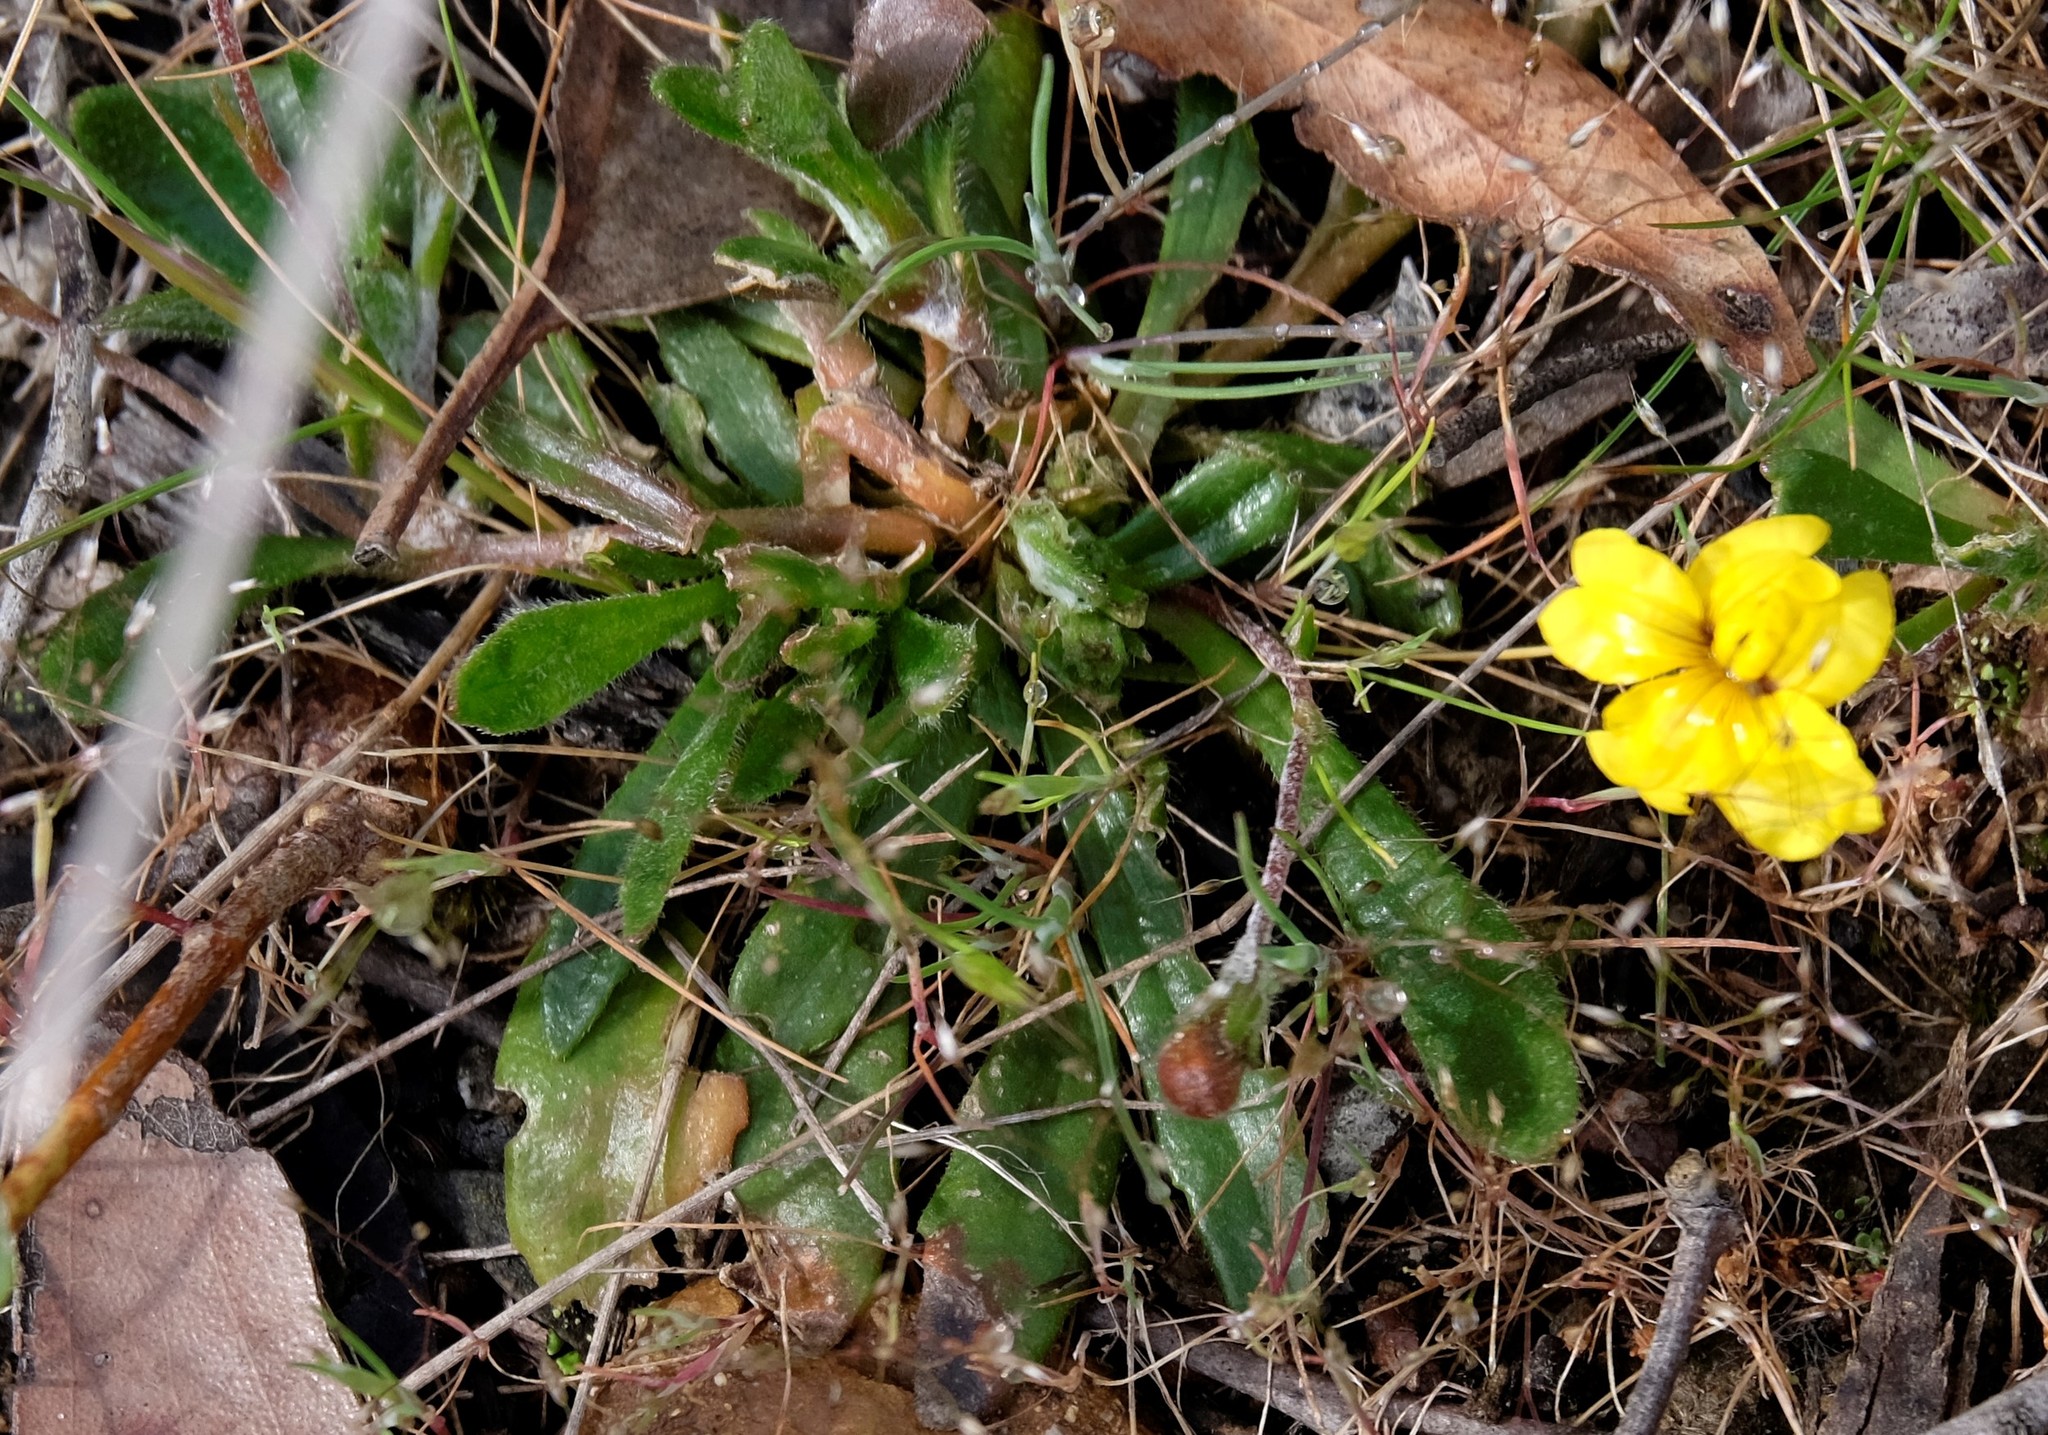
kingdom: Plantae
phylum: Tracheophyta
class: Magnoliopsida
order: Asterales
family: Goodeniaceae
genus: Goodenia
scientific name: Goodenia geniculata
